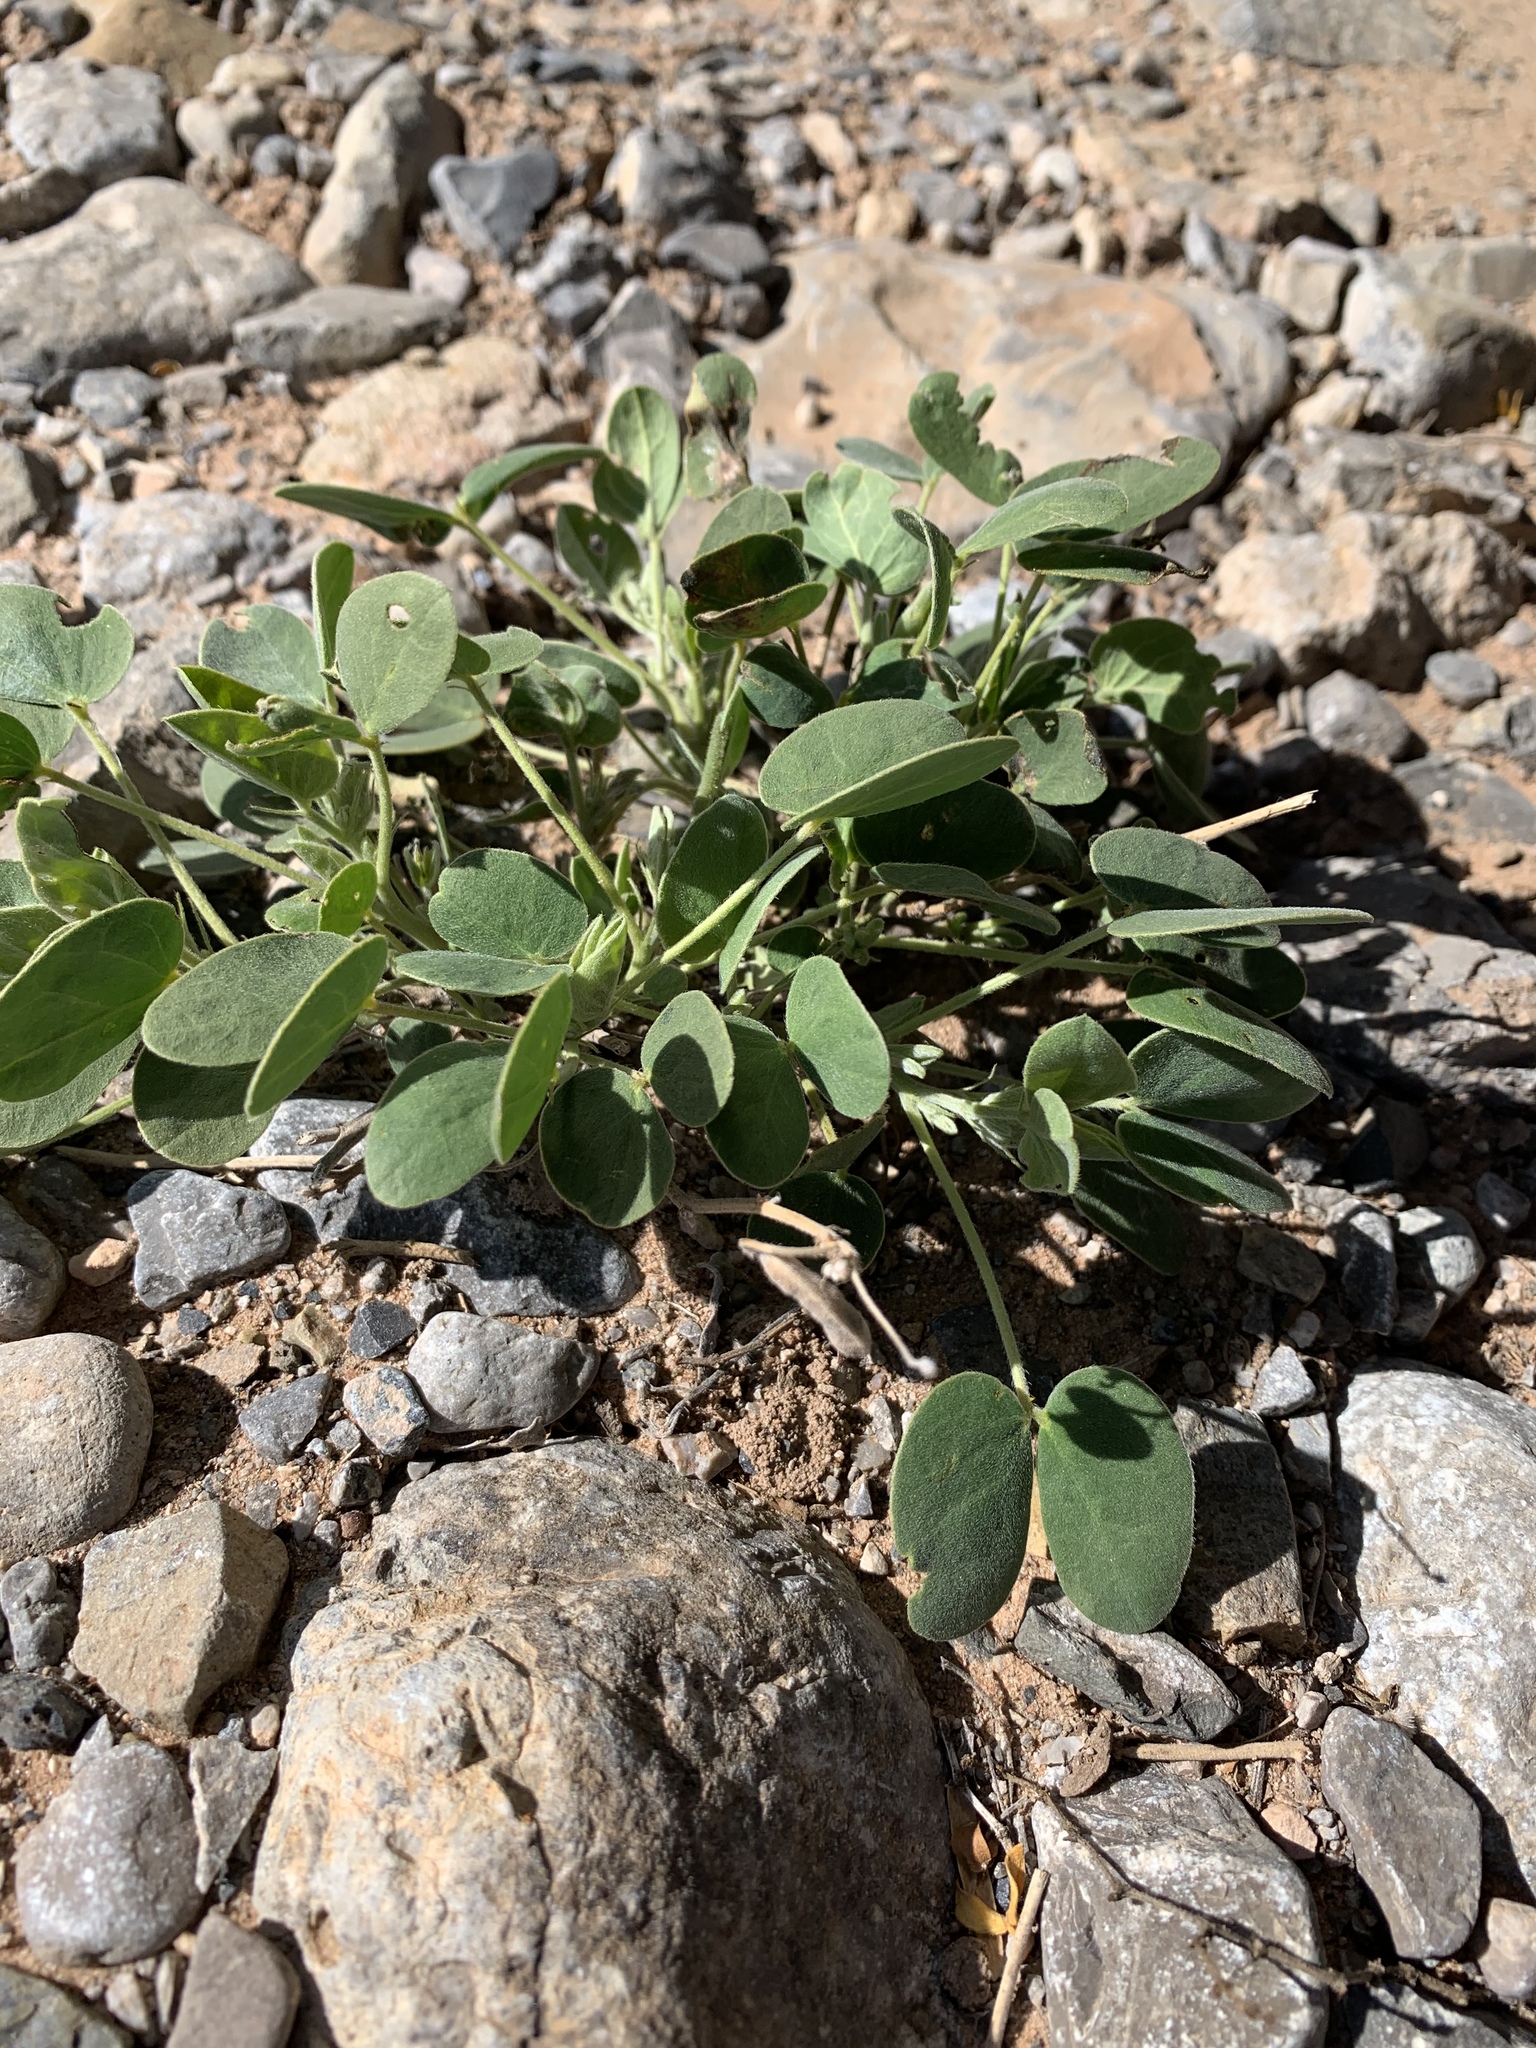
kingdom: Plantae
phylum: Tracheophyta
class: Magnoliopsida
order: Fabales
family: Fabaceae
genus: Senna
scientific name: Senna bauhinioides
